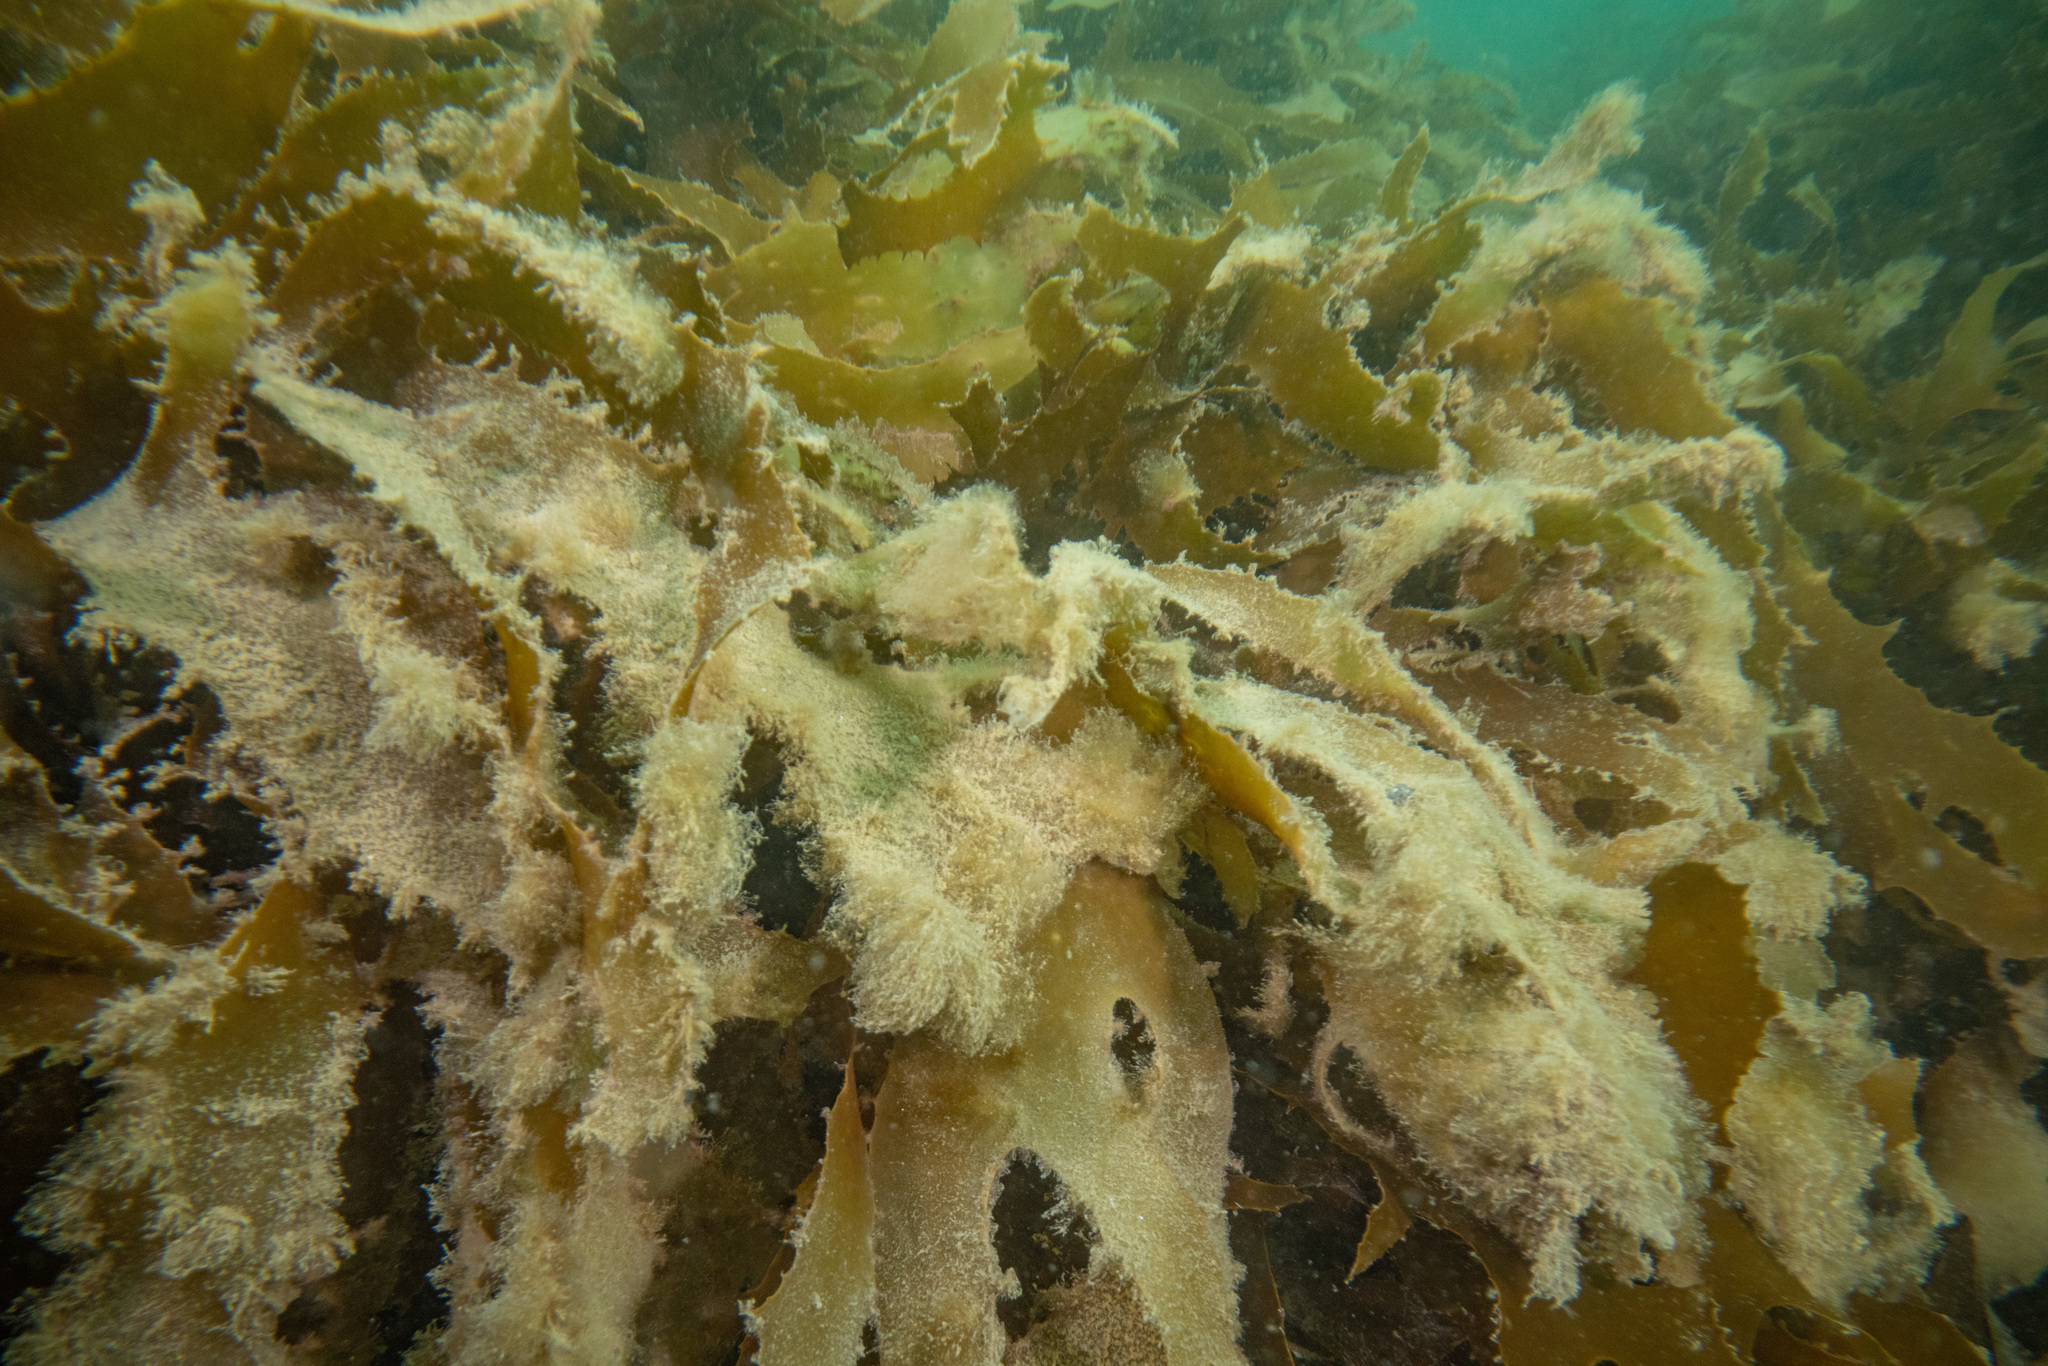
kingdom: Chromista
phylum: Ochrophyta
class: Phaeophyceae
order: Laminariales
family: Lessoniaceae
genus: Ecklonia
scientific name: Ecklonia radiata
